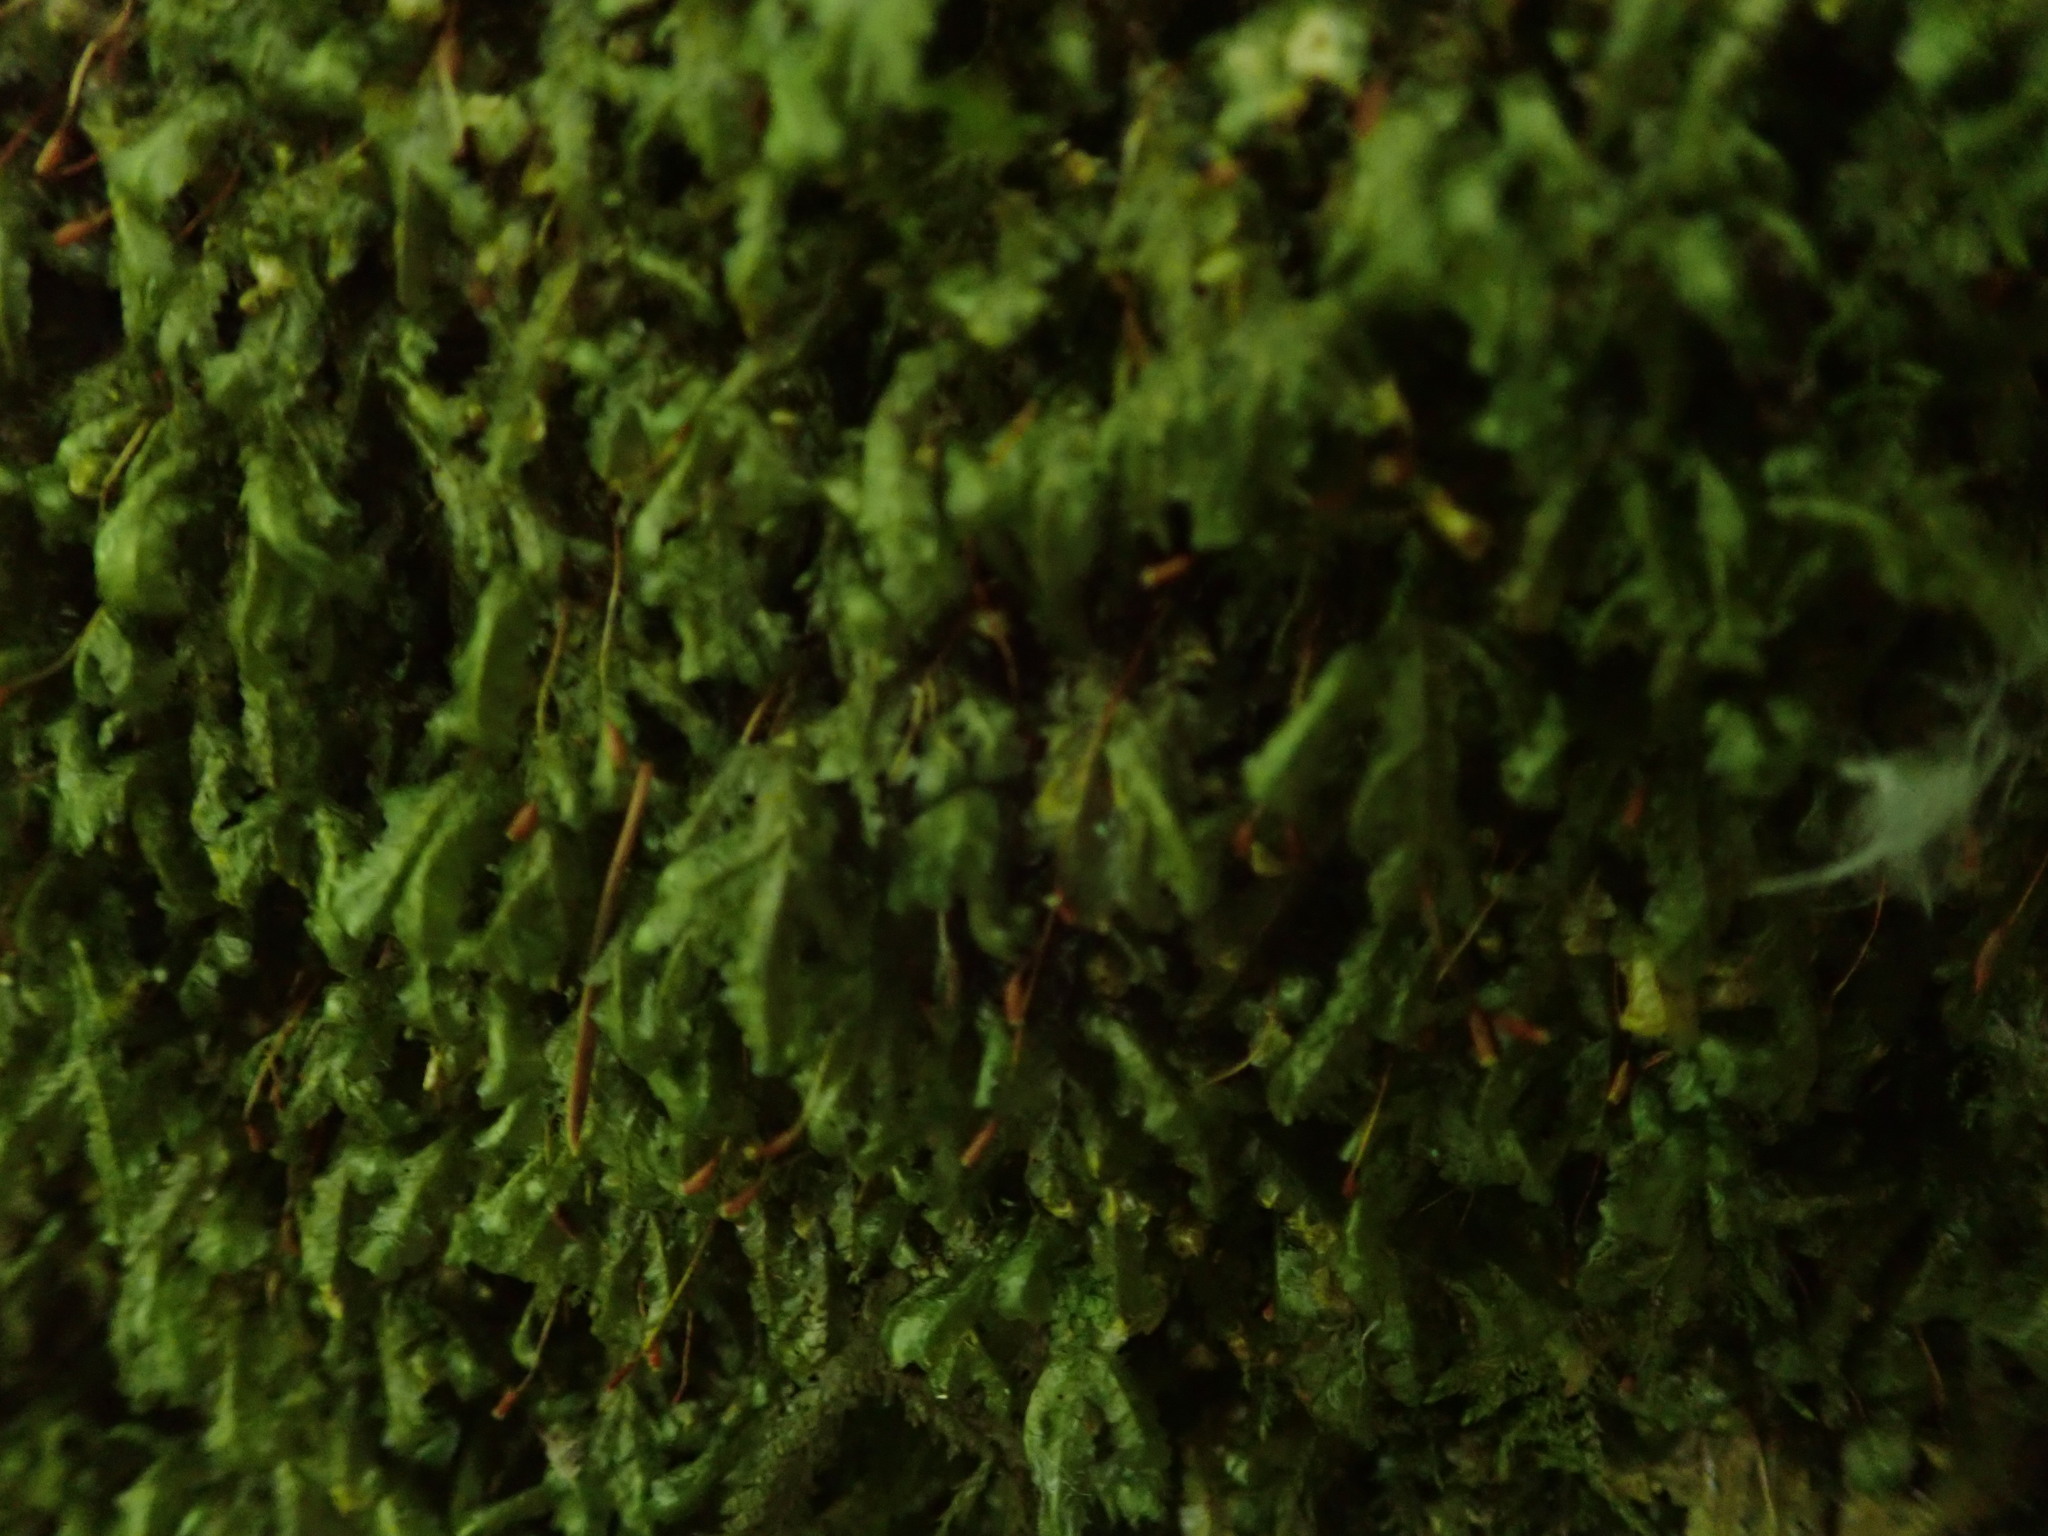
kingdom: Plantae
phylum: Bryophyta
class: Bryopsida
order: Hypnales
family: Neckeraceae
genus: Homalia
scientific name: Homalia trichomanoides
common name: Lime homalia moss
